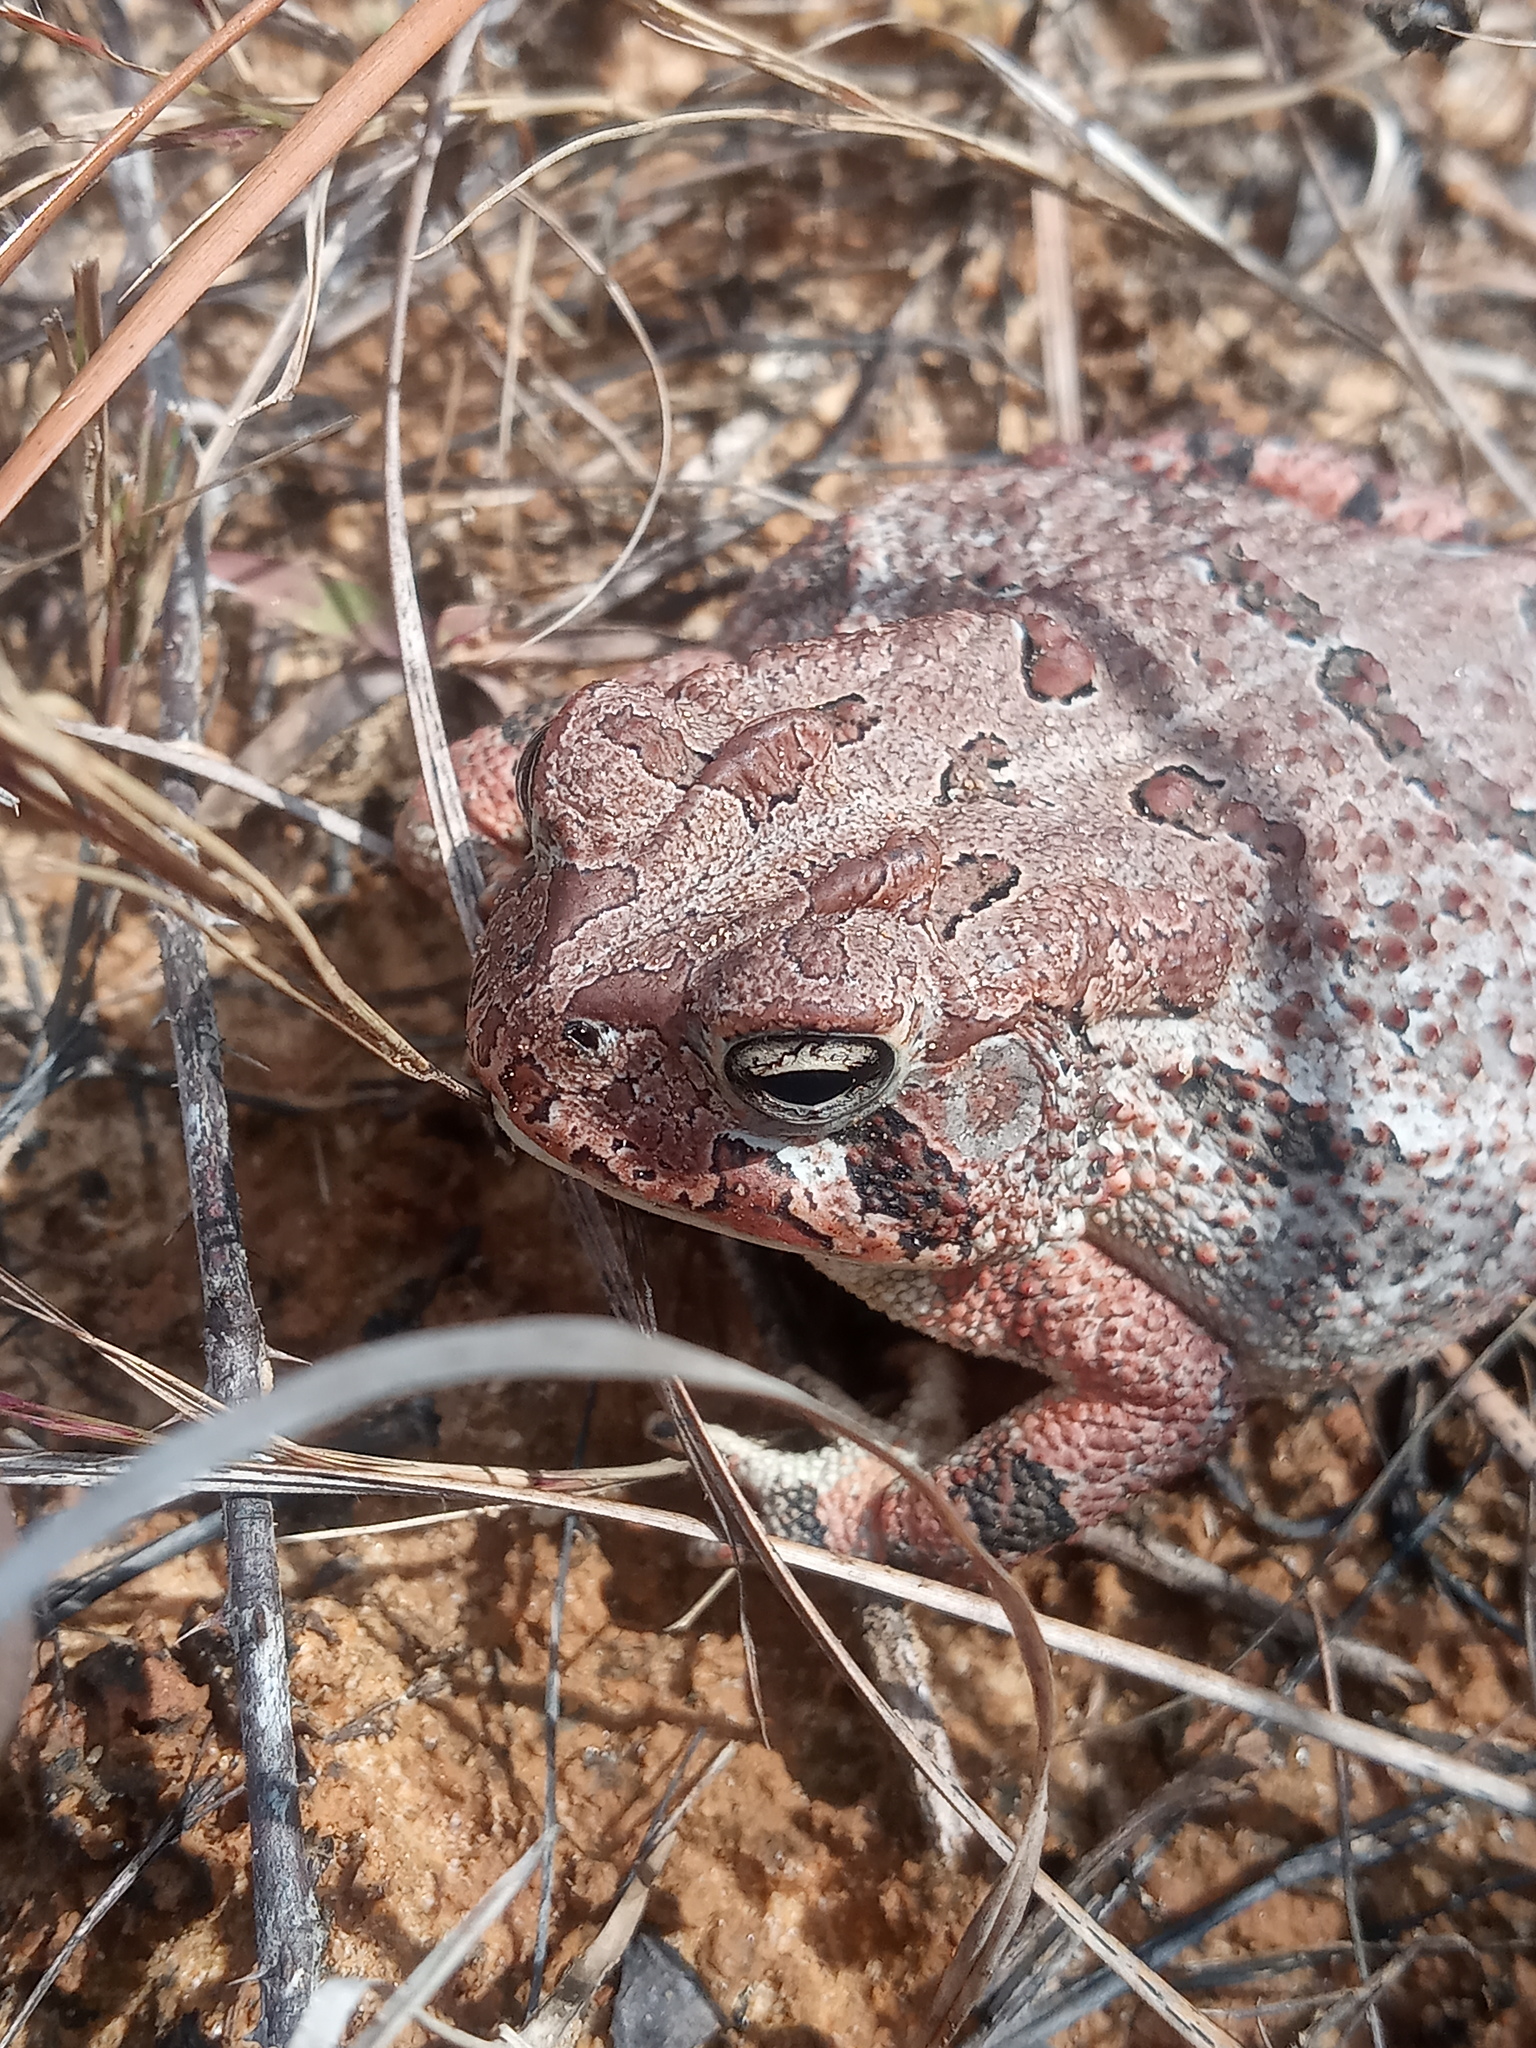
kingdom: Animalia
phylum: Chordata
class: Amphibia
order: Anura
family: Bufonidae
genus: Anaxyrus
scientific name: Anaxyrus terrestris
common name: Southern toad
